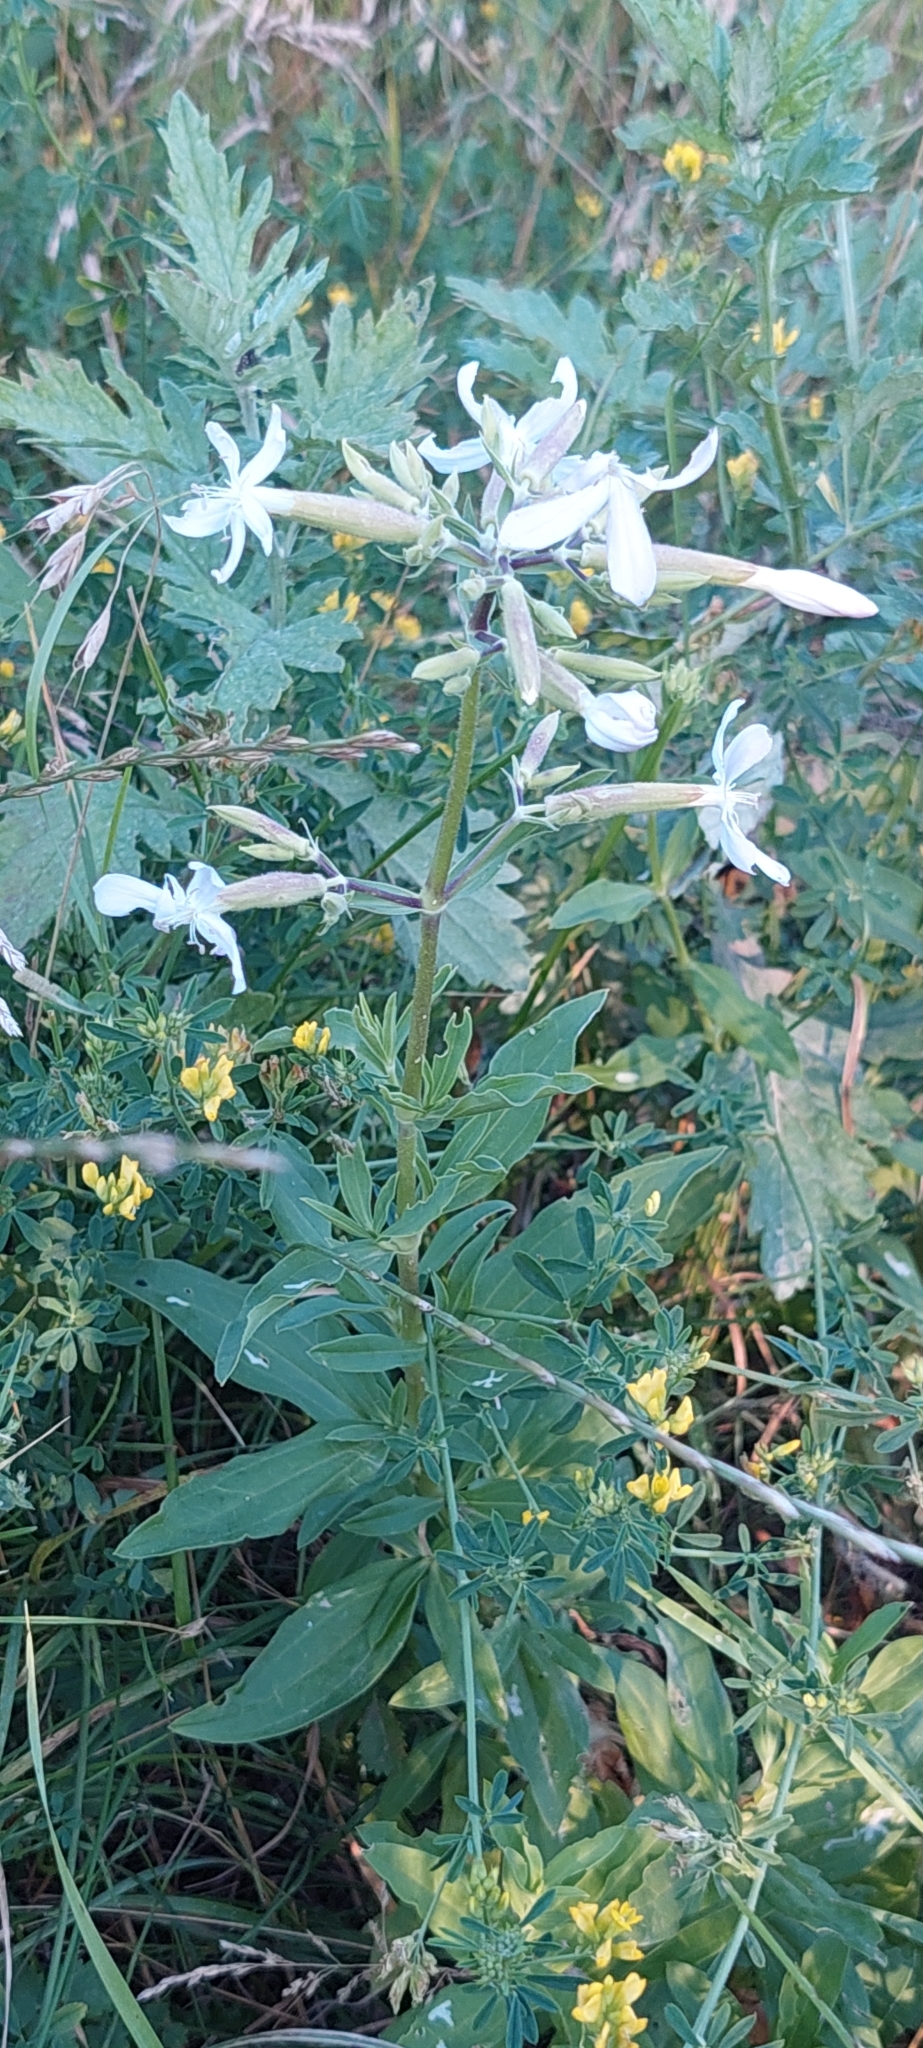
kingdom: Plantae
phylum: Tracheophyta
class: Magnoliopsida
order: Caryophyllales
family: Caryophyllaceae
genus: Saponaria
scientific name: Saponaria officinalis
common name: Soapwort
